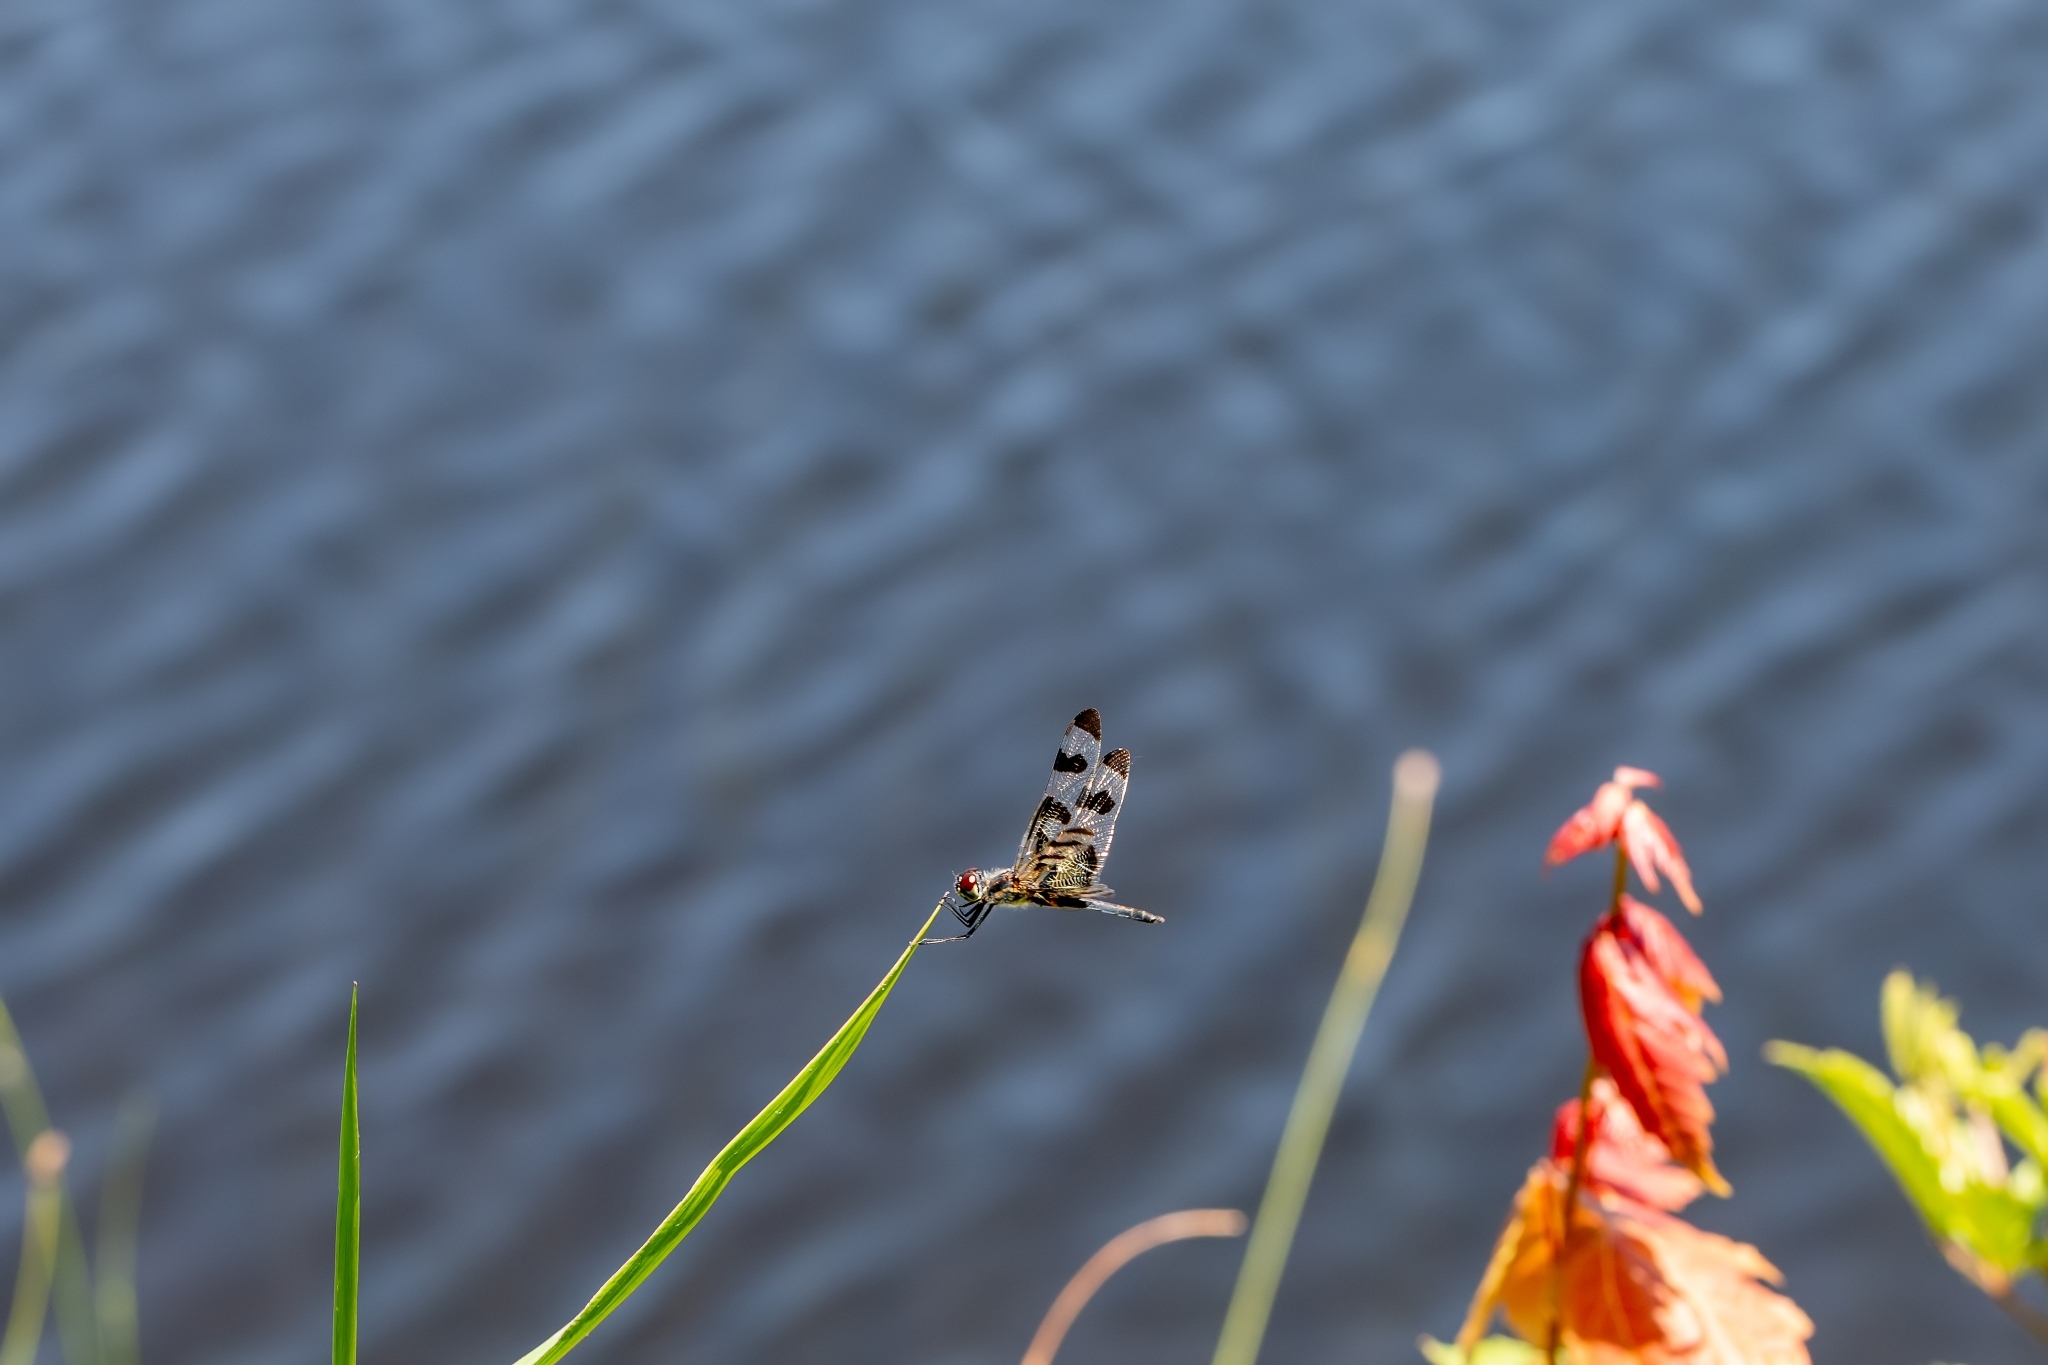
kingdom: Animalia
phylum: Arthropoda
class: Insecta
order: Odonata
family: Libellulidae
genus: Celithemis
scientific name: Celithemis fasciata
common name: Banded pennant
